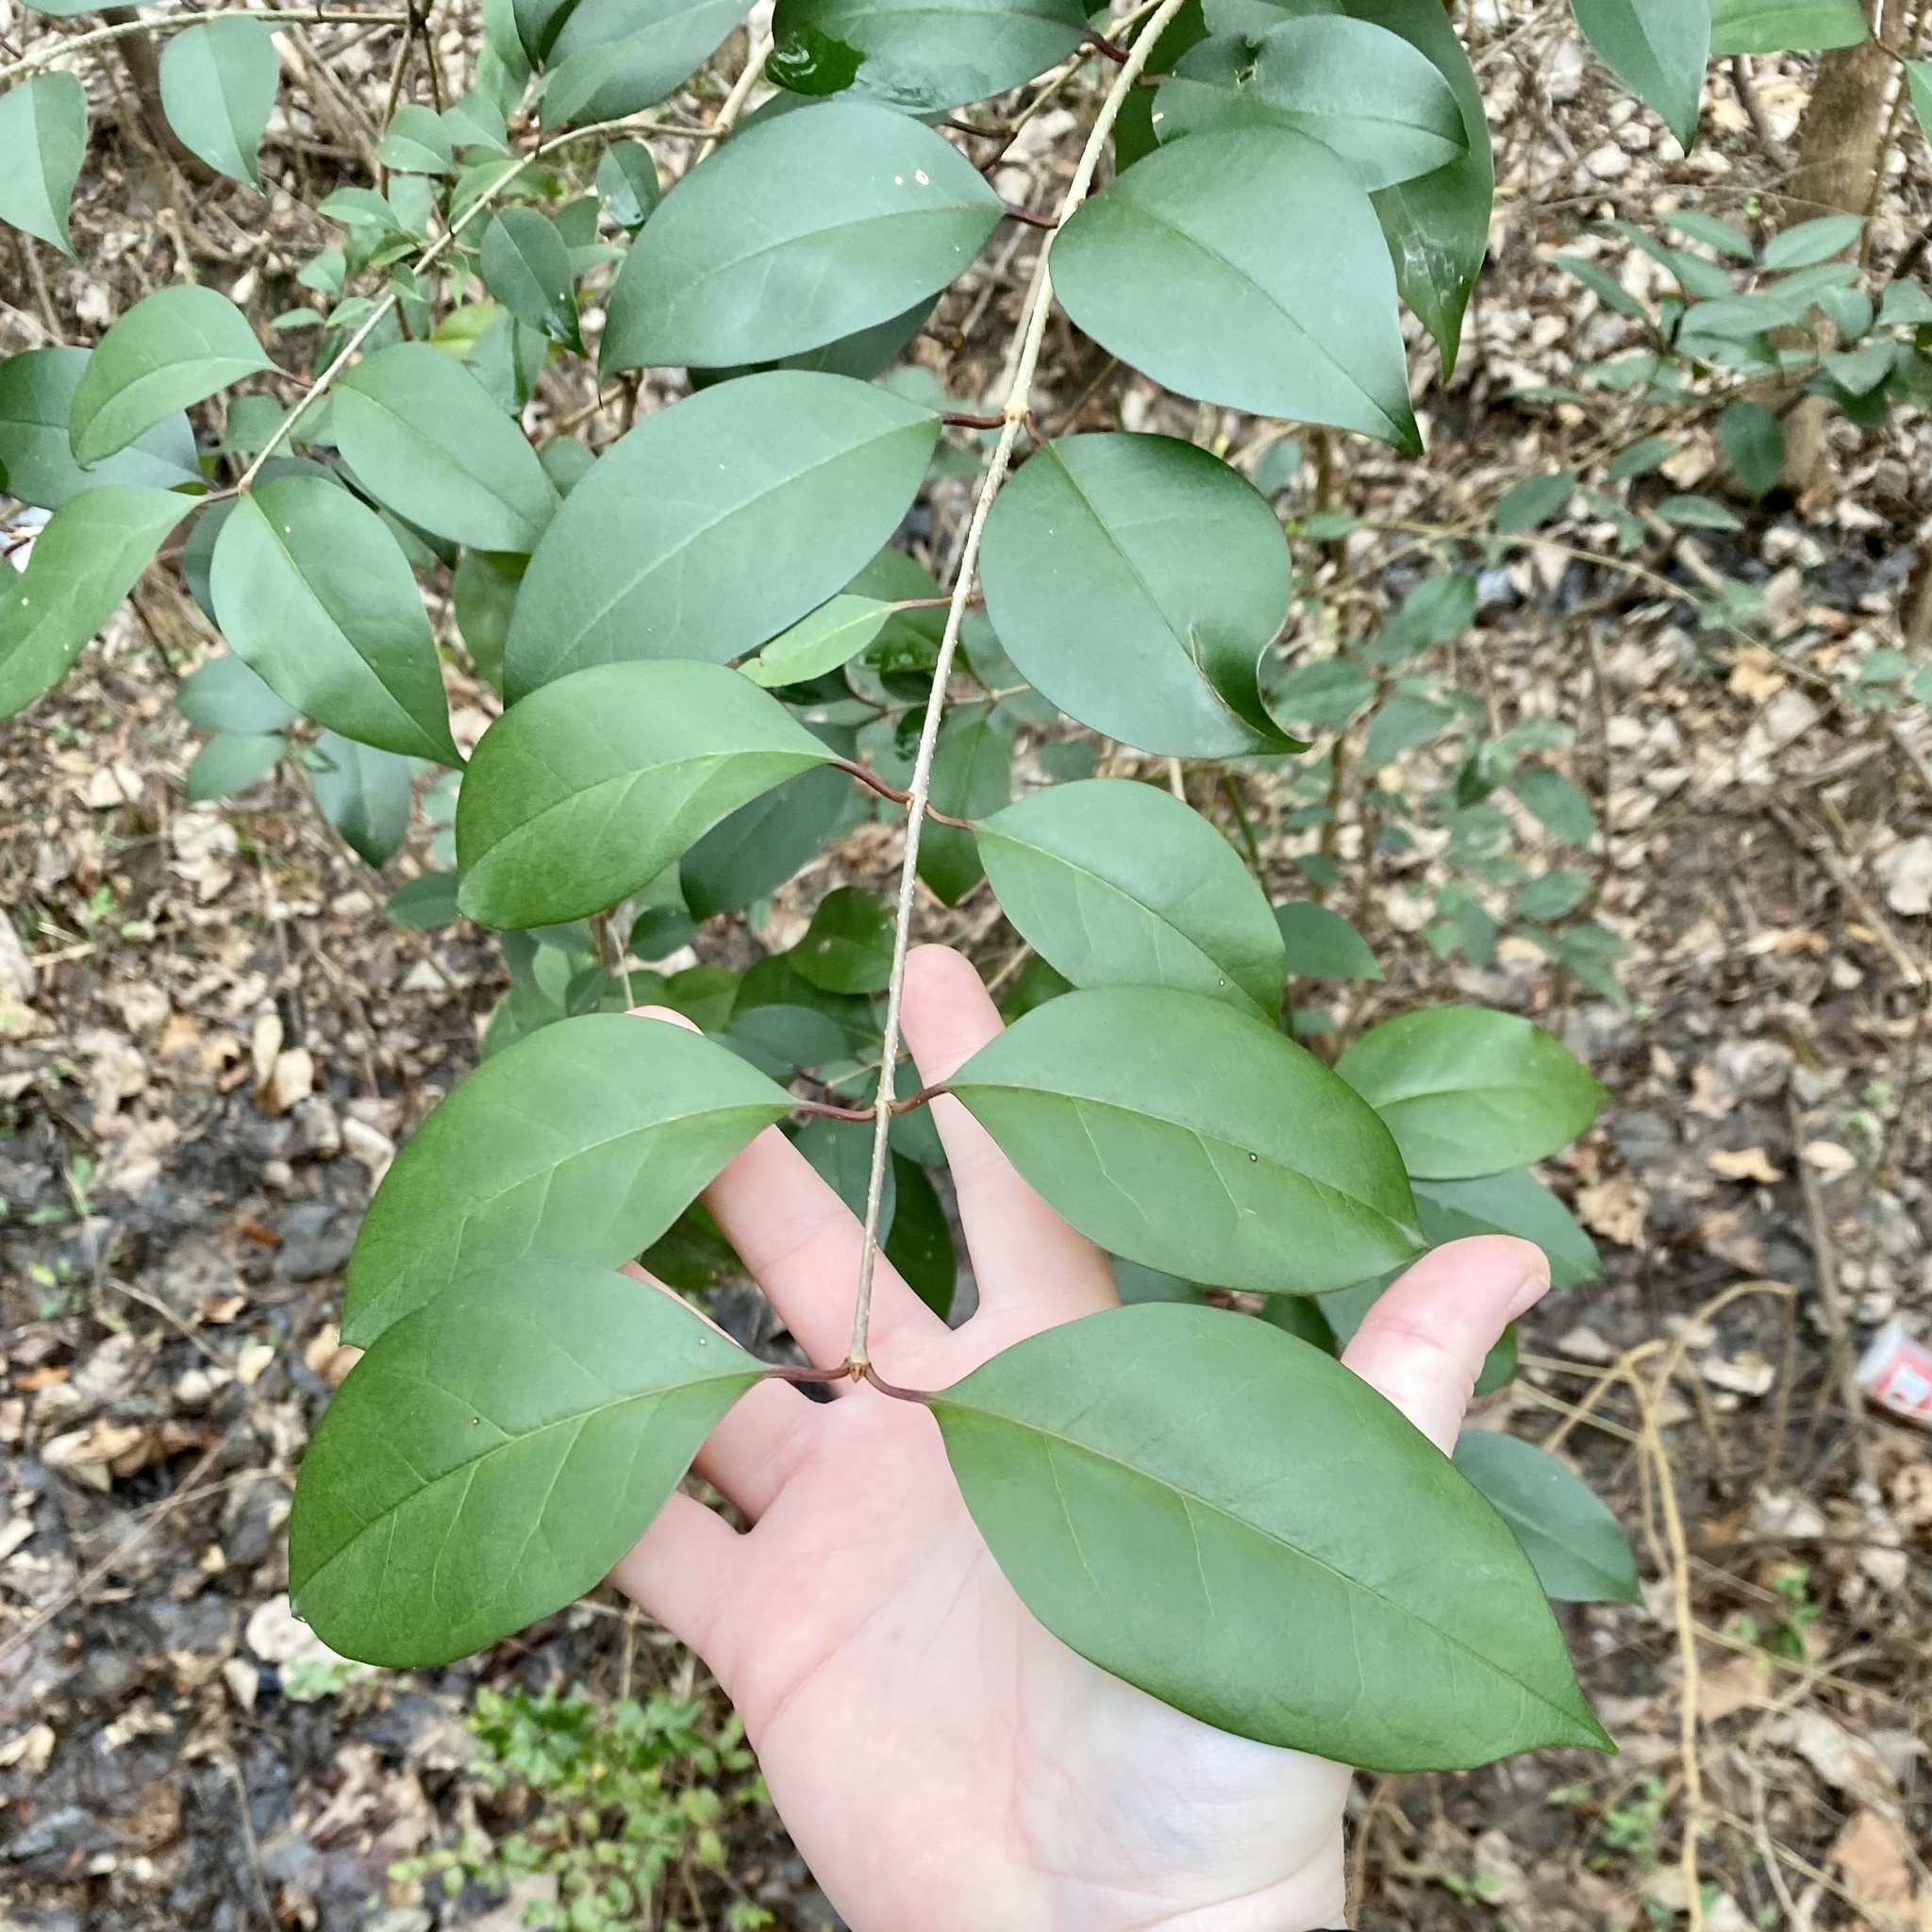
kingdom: Plantae
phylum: Tracheophyta
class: Magnoliopsida
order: Lamiales
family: Oleaceae
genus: Ligustrum
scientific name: Ligustrum lucidum
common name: Glossy privet
